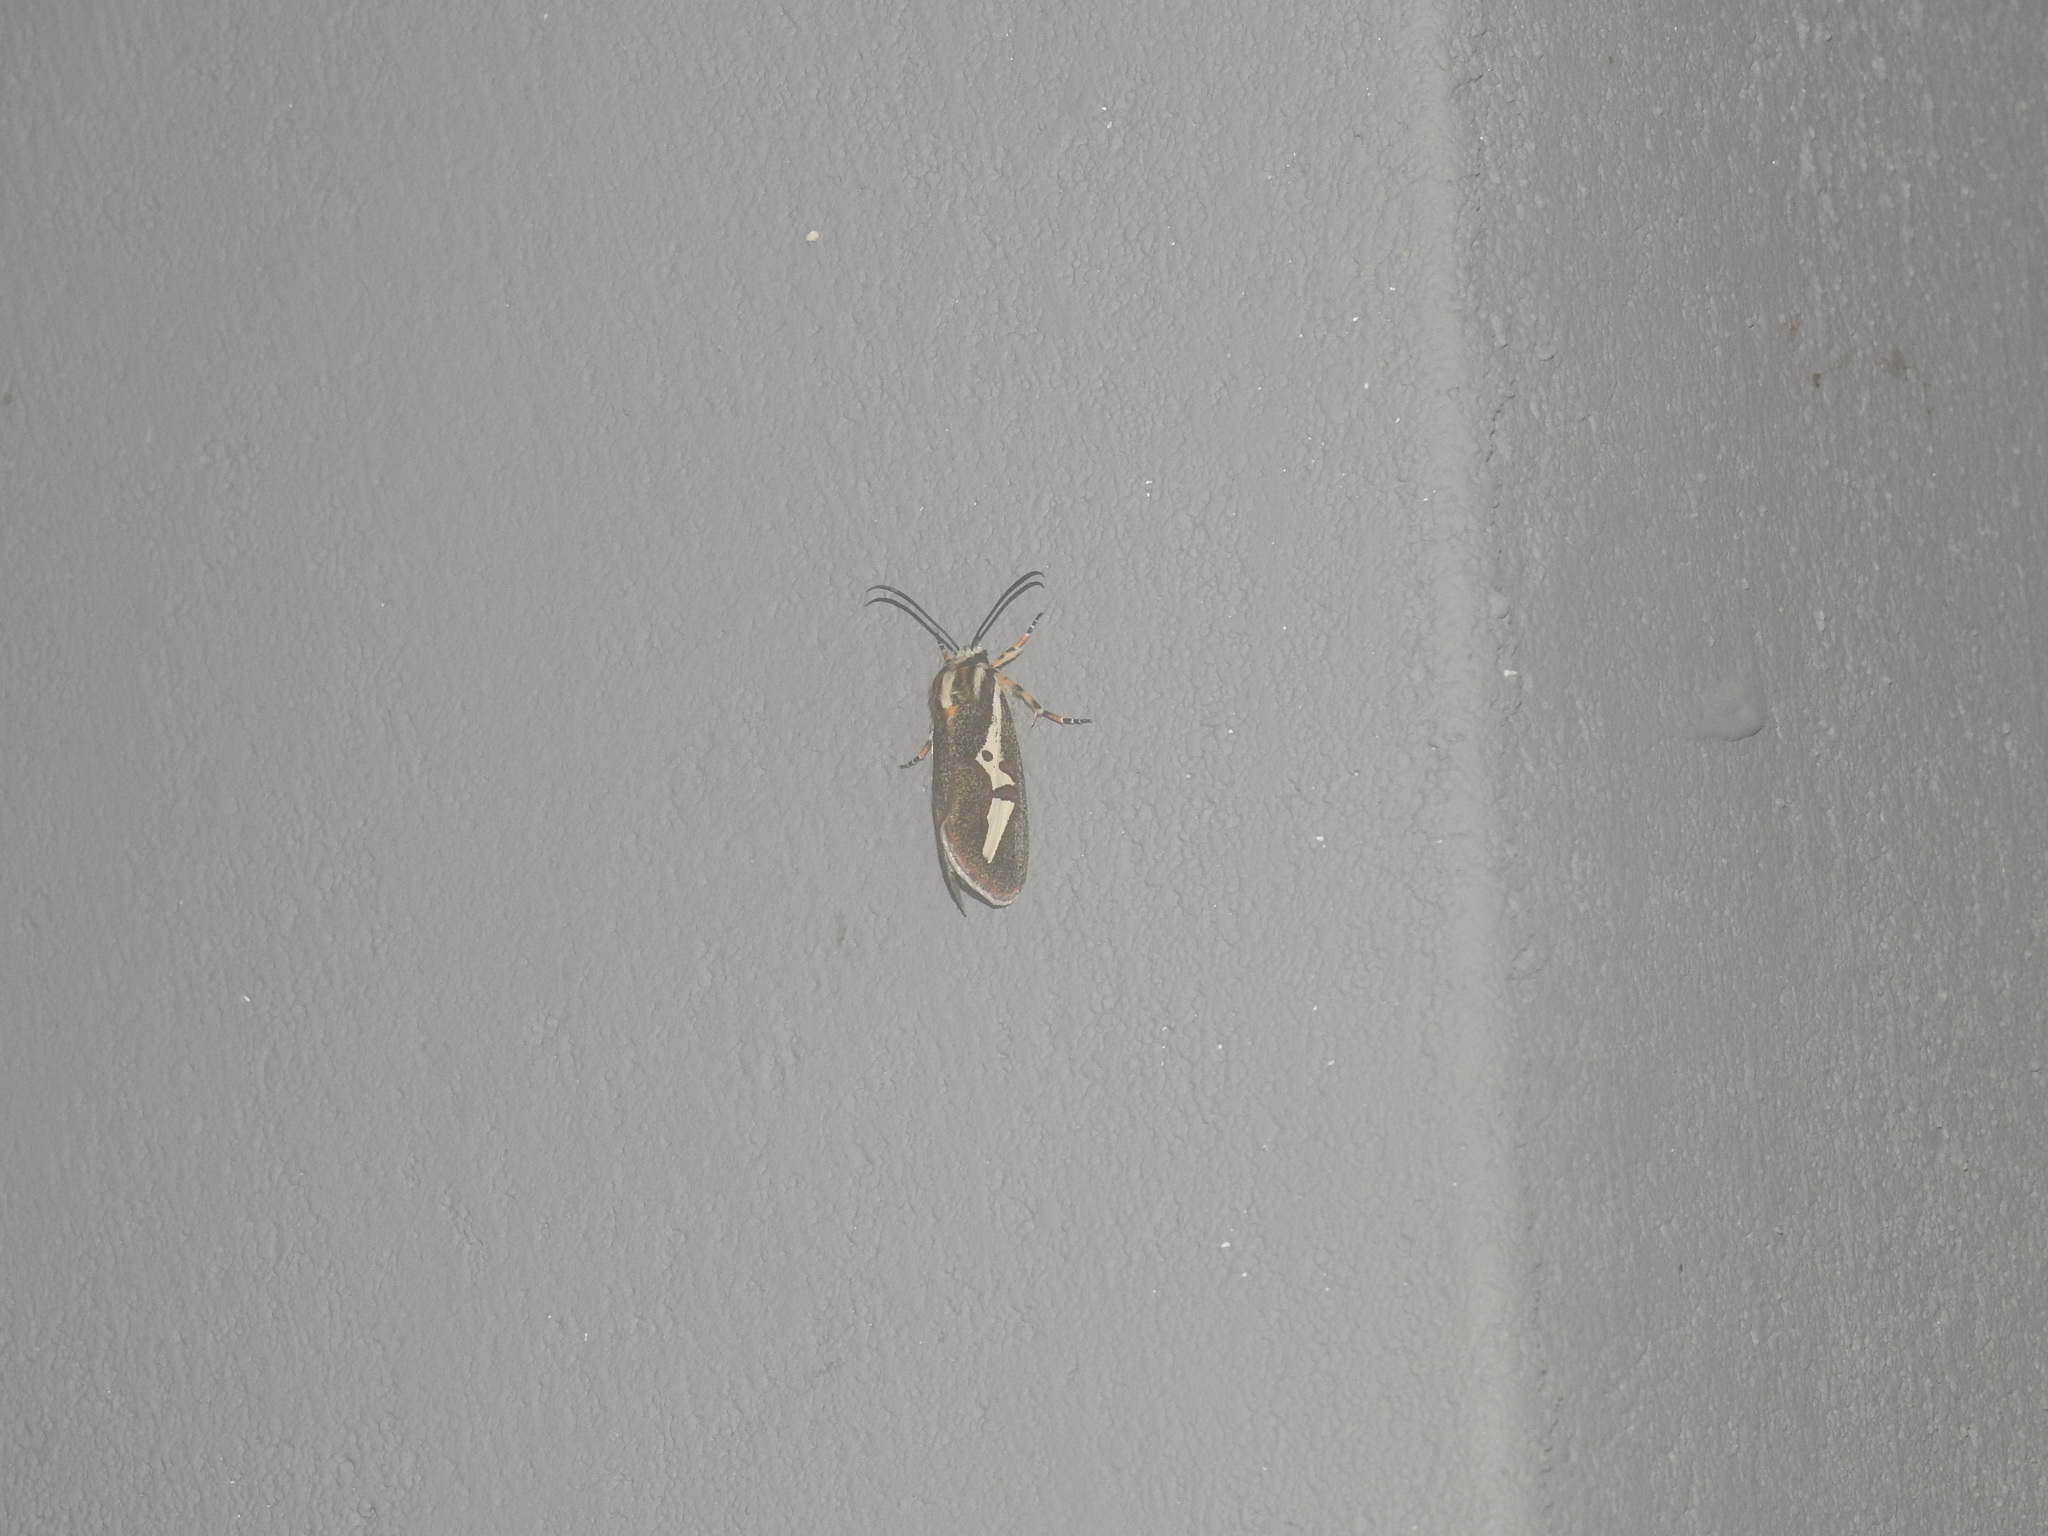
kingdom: Animalia
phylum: Arthropoda
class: Insecta
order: Lepidoptera
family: Noctuidae
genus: Aegocera
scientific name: Aegocera venulia
